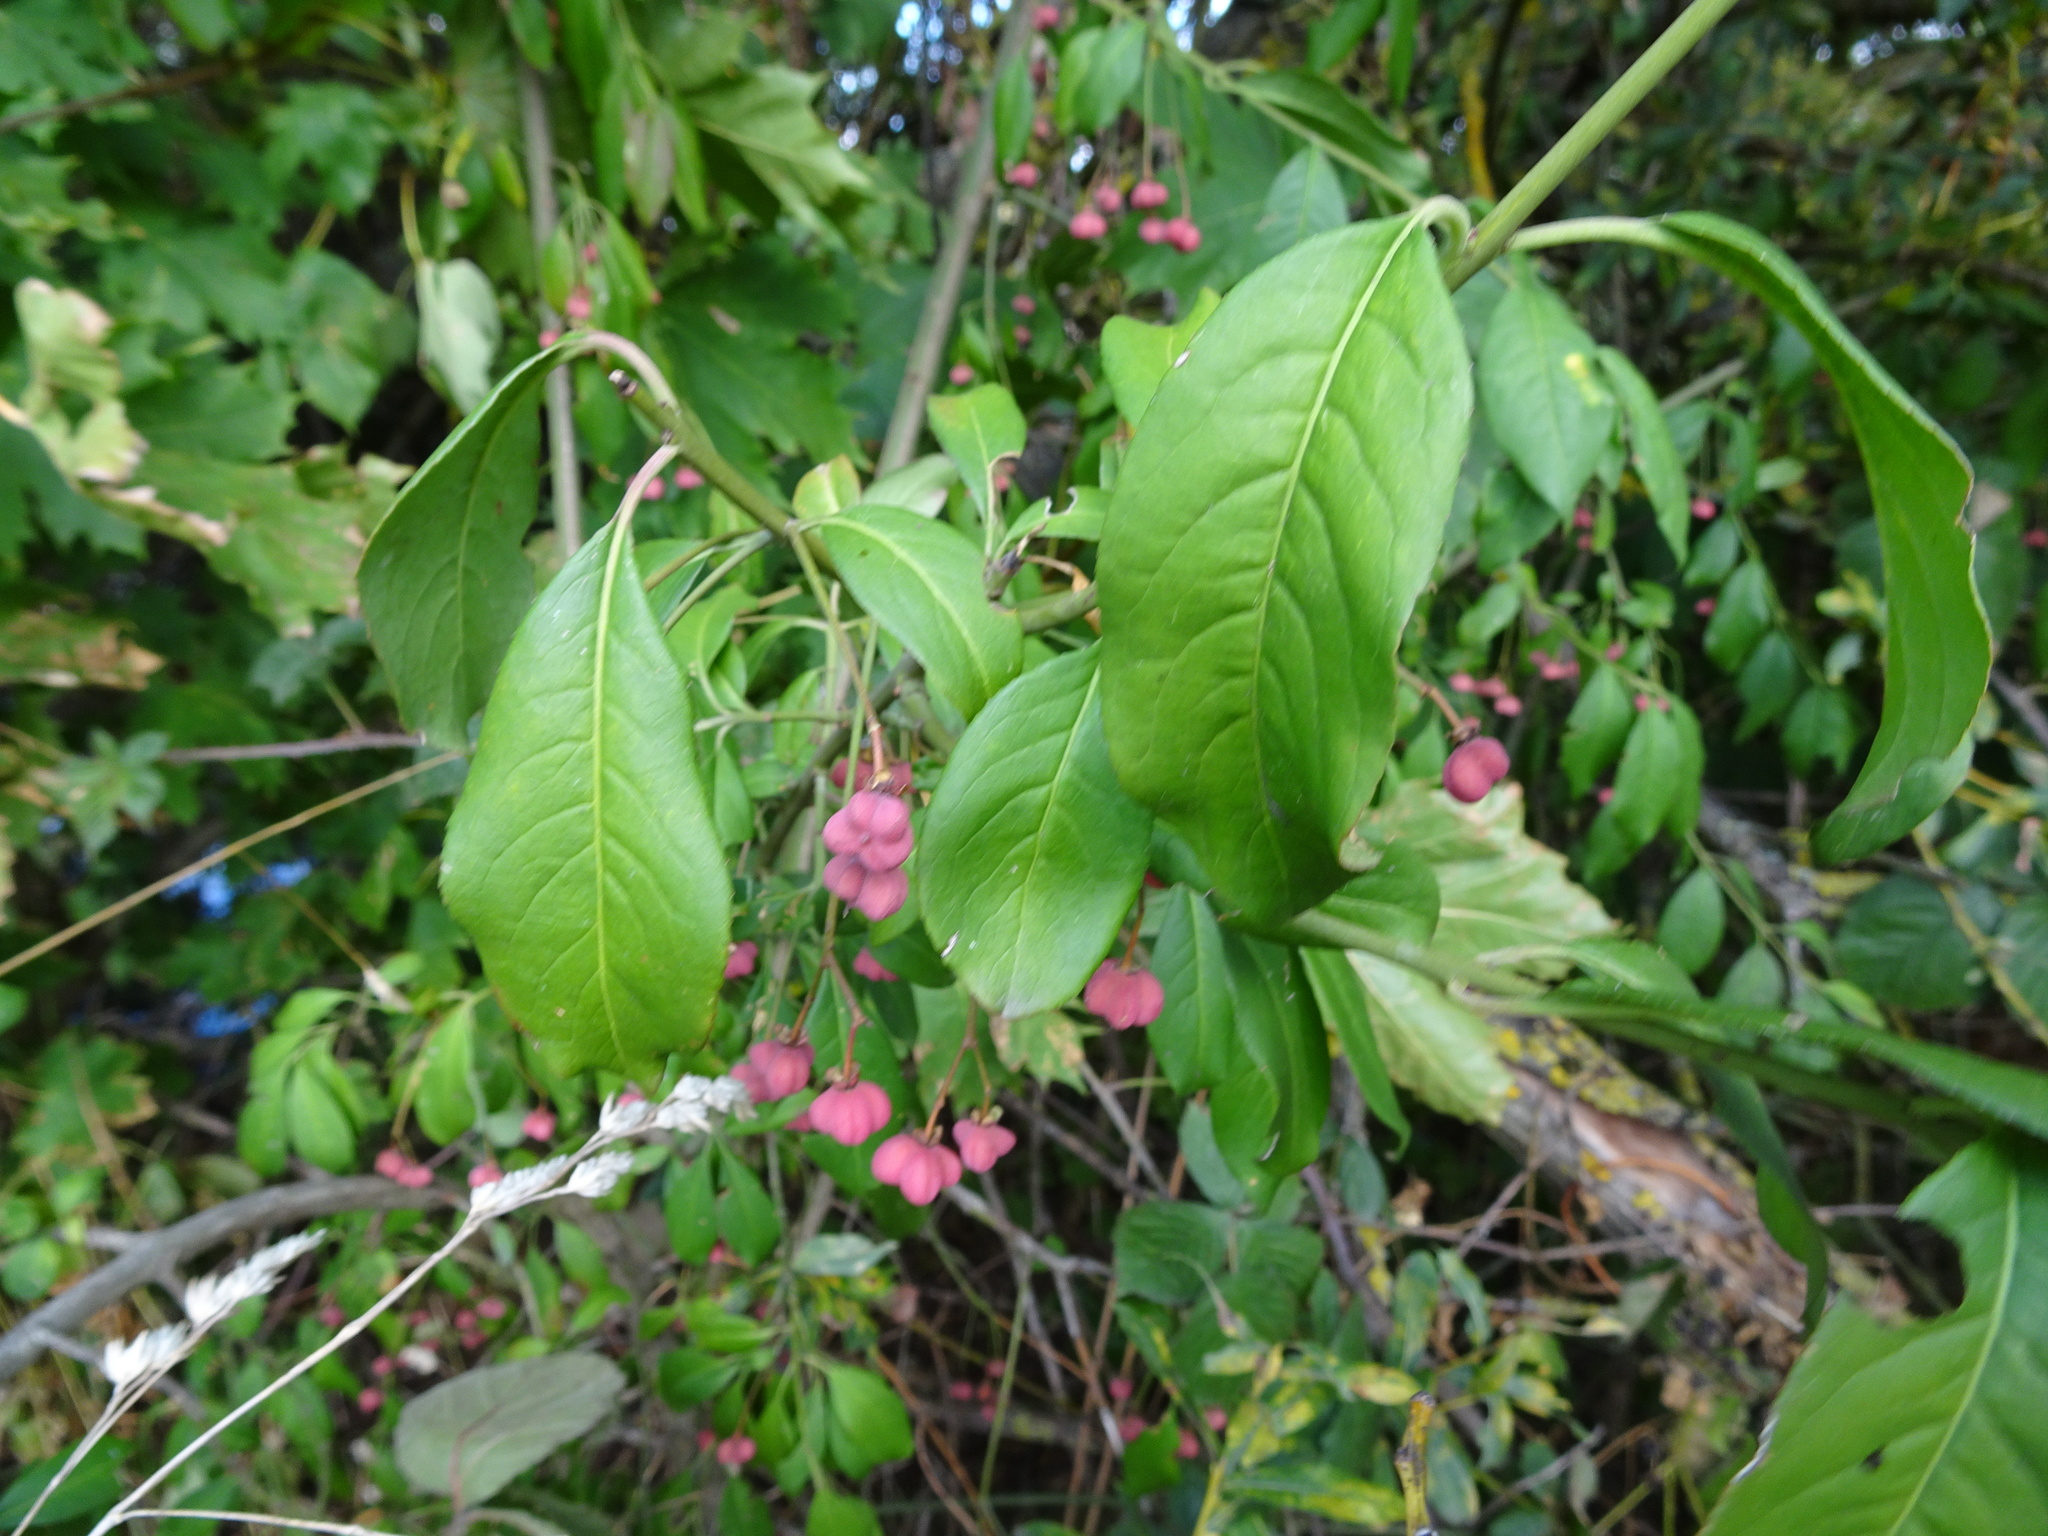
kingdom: Plantae
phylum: Tracheophyta
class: Magnoliopsida
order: Celastrales
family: Celastraceae
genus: Euonymus
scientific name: Euonymus europaeus
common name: Spindle
